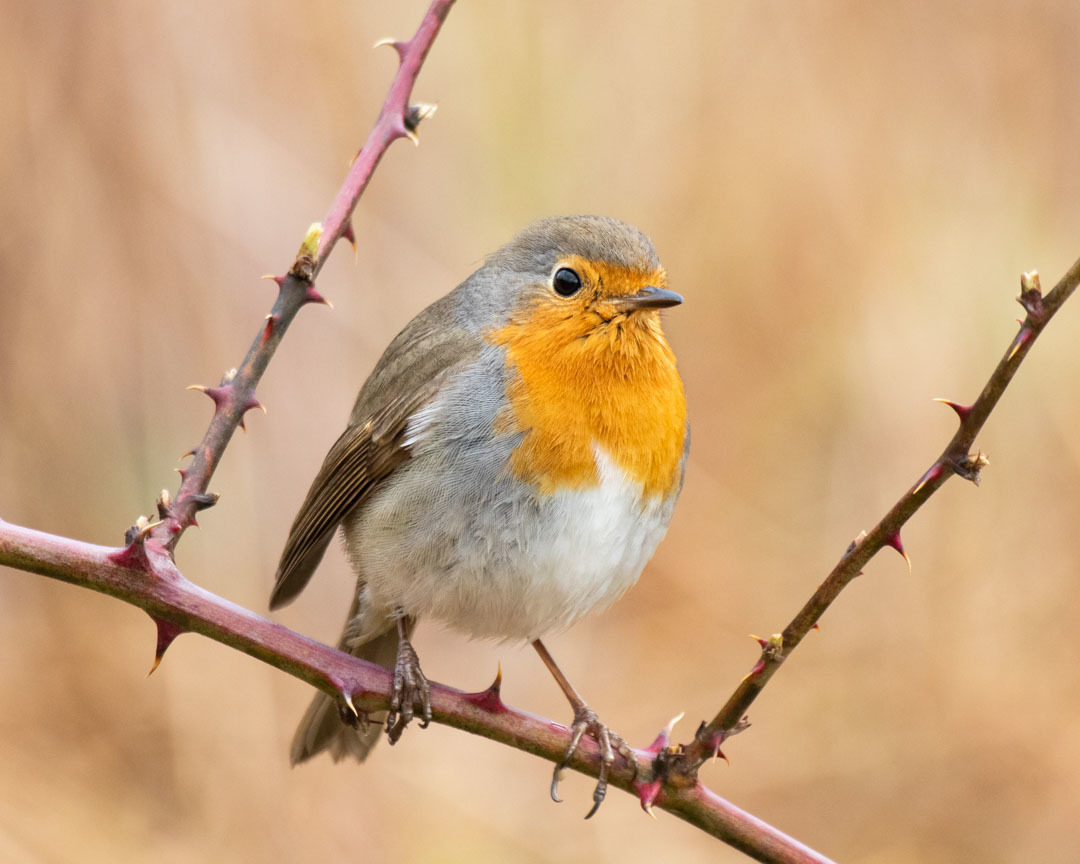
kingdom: Animalia
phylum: Chordata
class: Aves
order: Passeriformes
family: Muscicapidae
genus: Erithacus
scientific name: Erithacus rubecula
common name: European robin
